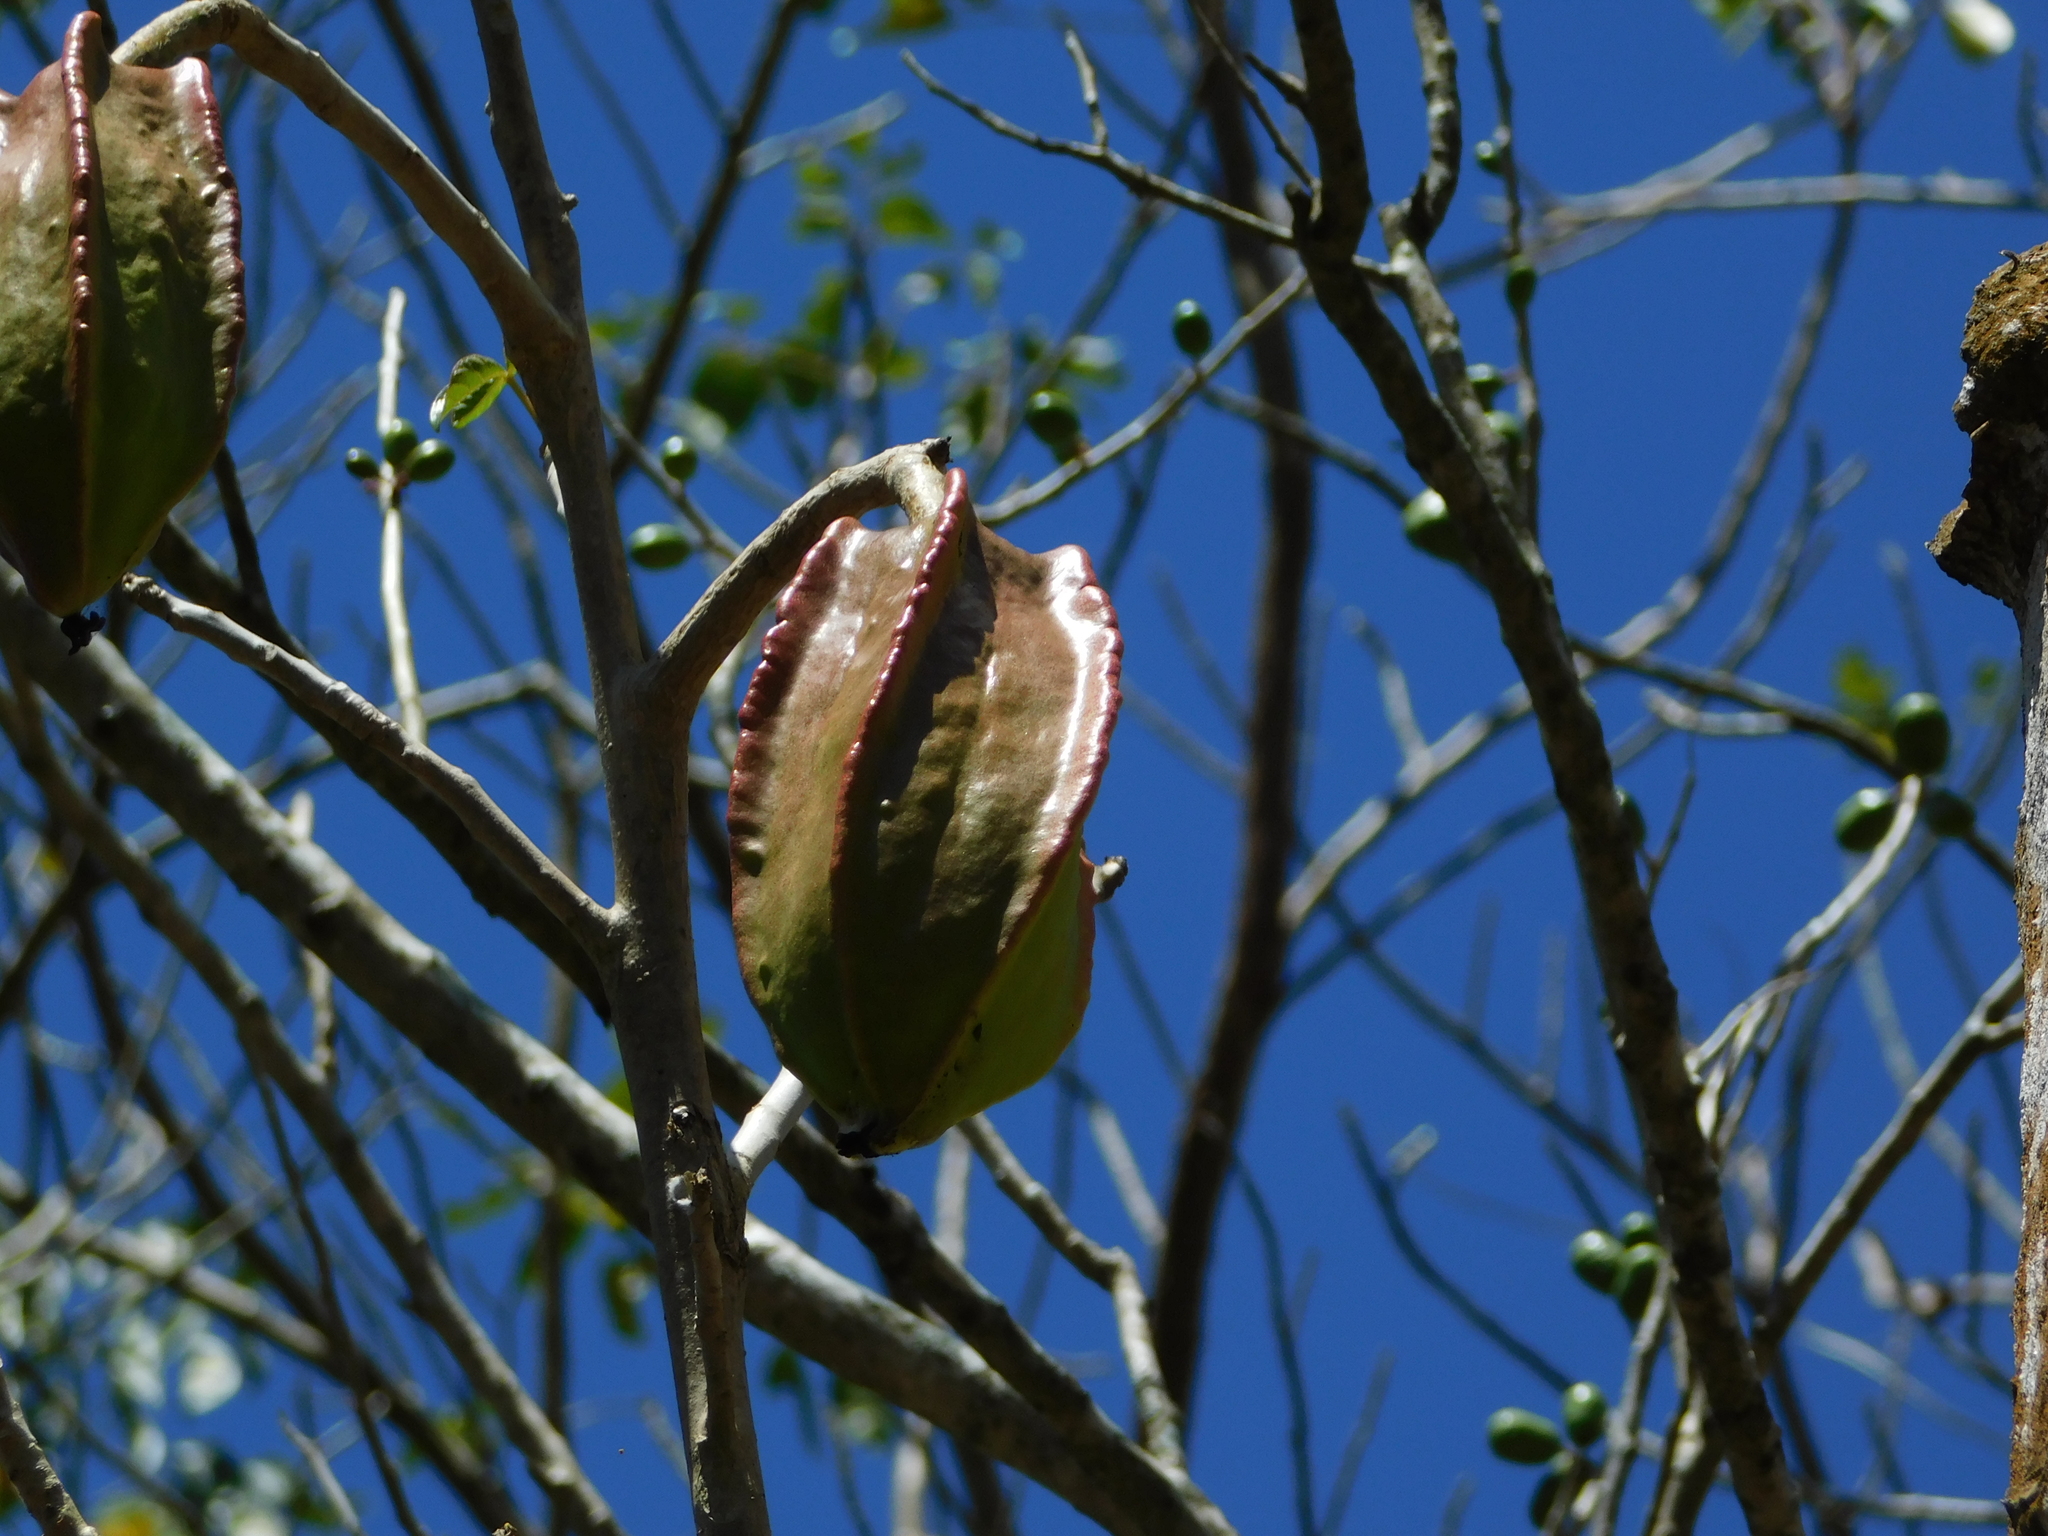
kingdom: Plantae
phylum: Tracheophyta
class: Magnoliopsida
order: Brassicales
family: Caricaceae
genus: Jacaratia
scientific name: Jacaratia mexicana
